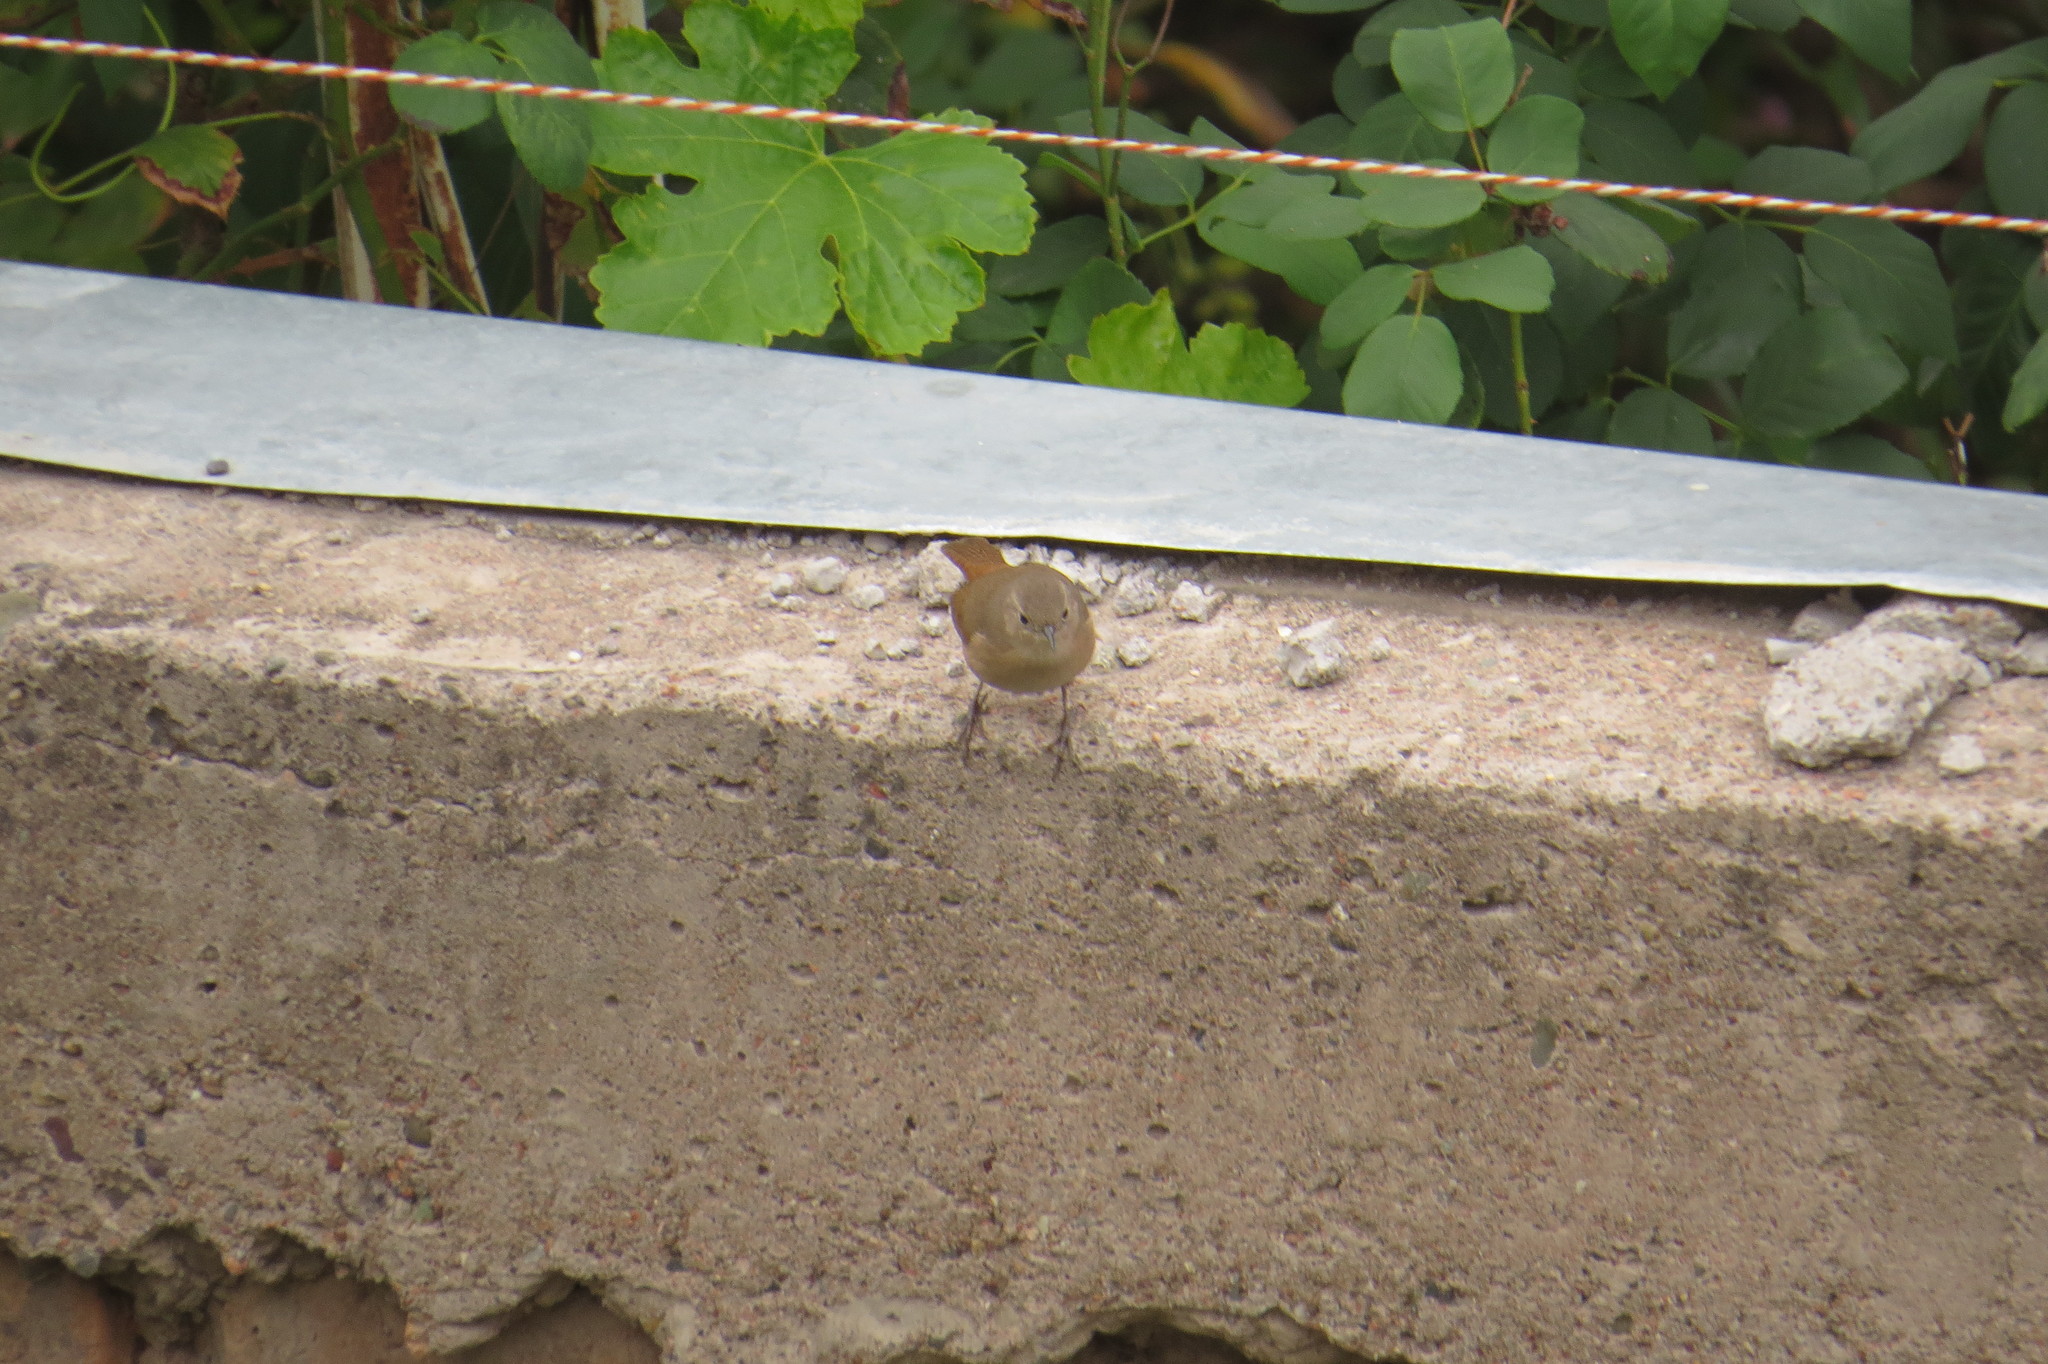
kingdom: Animalia
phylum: Chordata
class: Aves
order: Passeriformes
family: Troglodytidae
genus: Troglodytes
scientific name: Troglodytes aedon
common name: House wren
